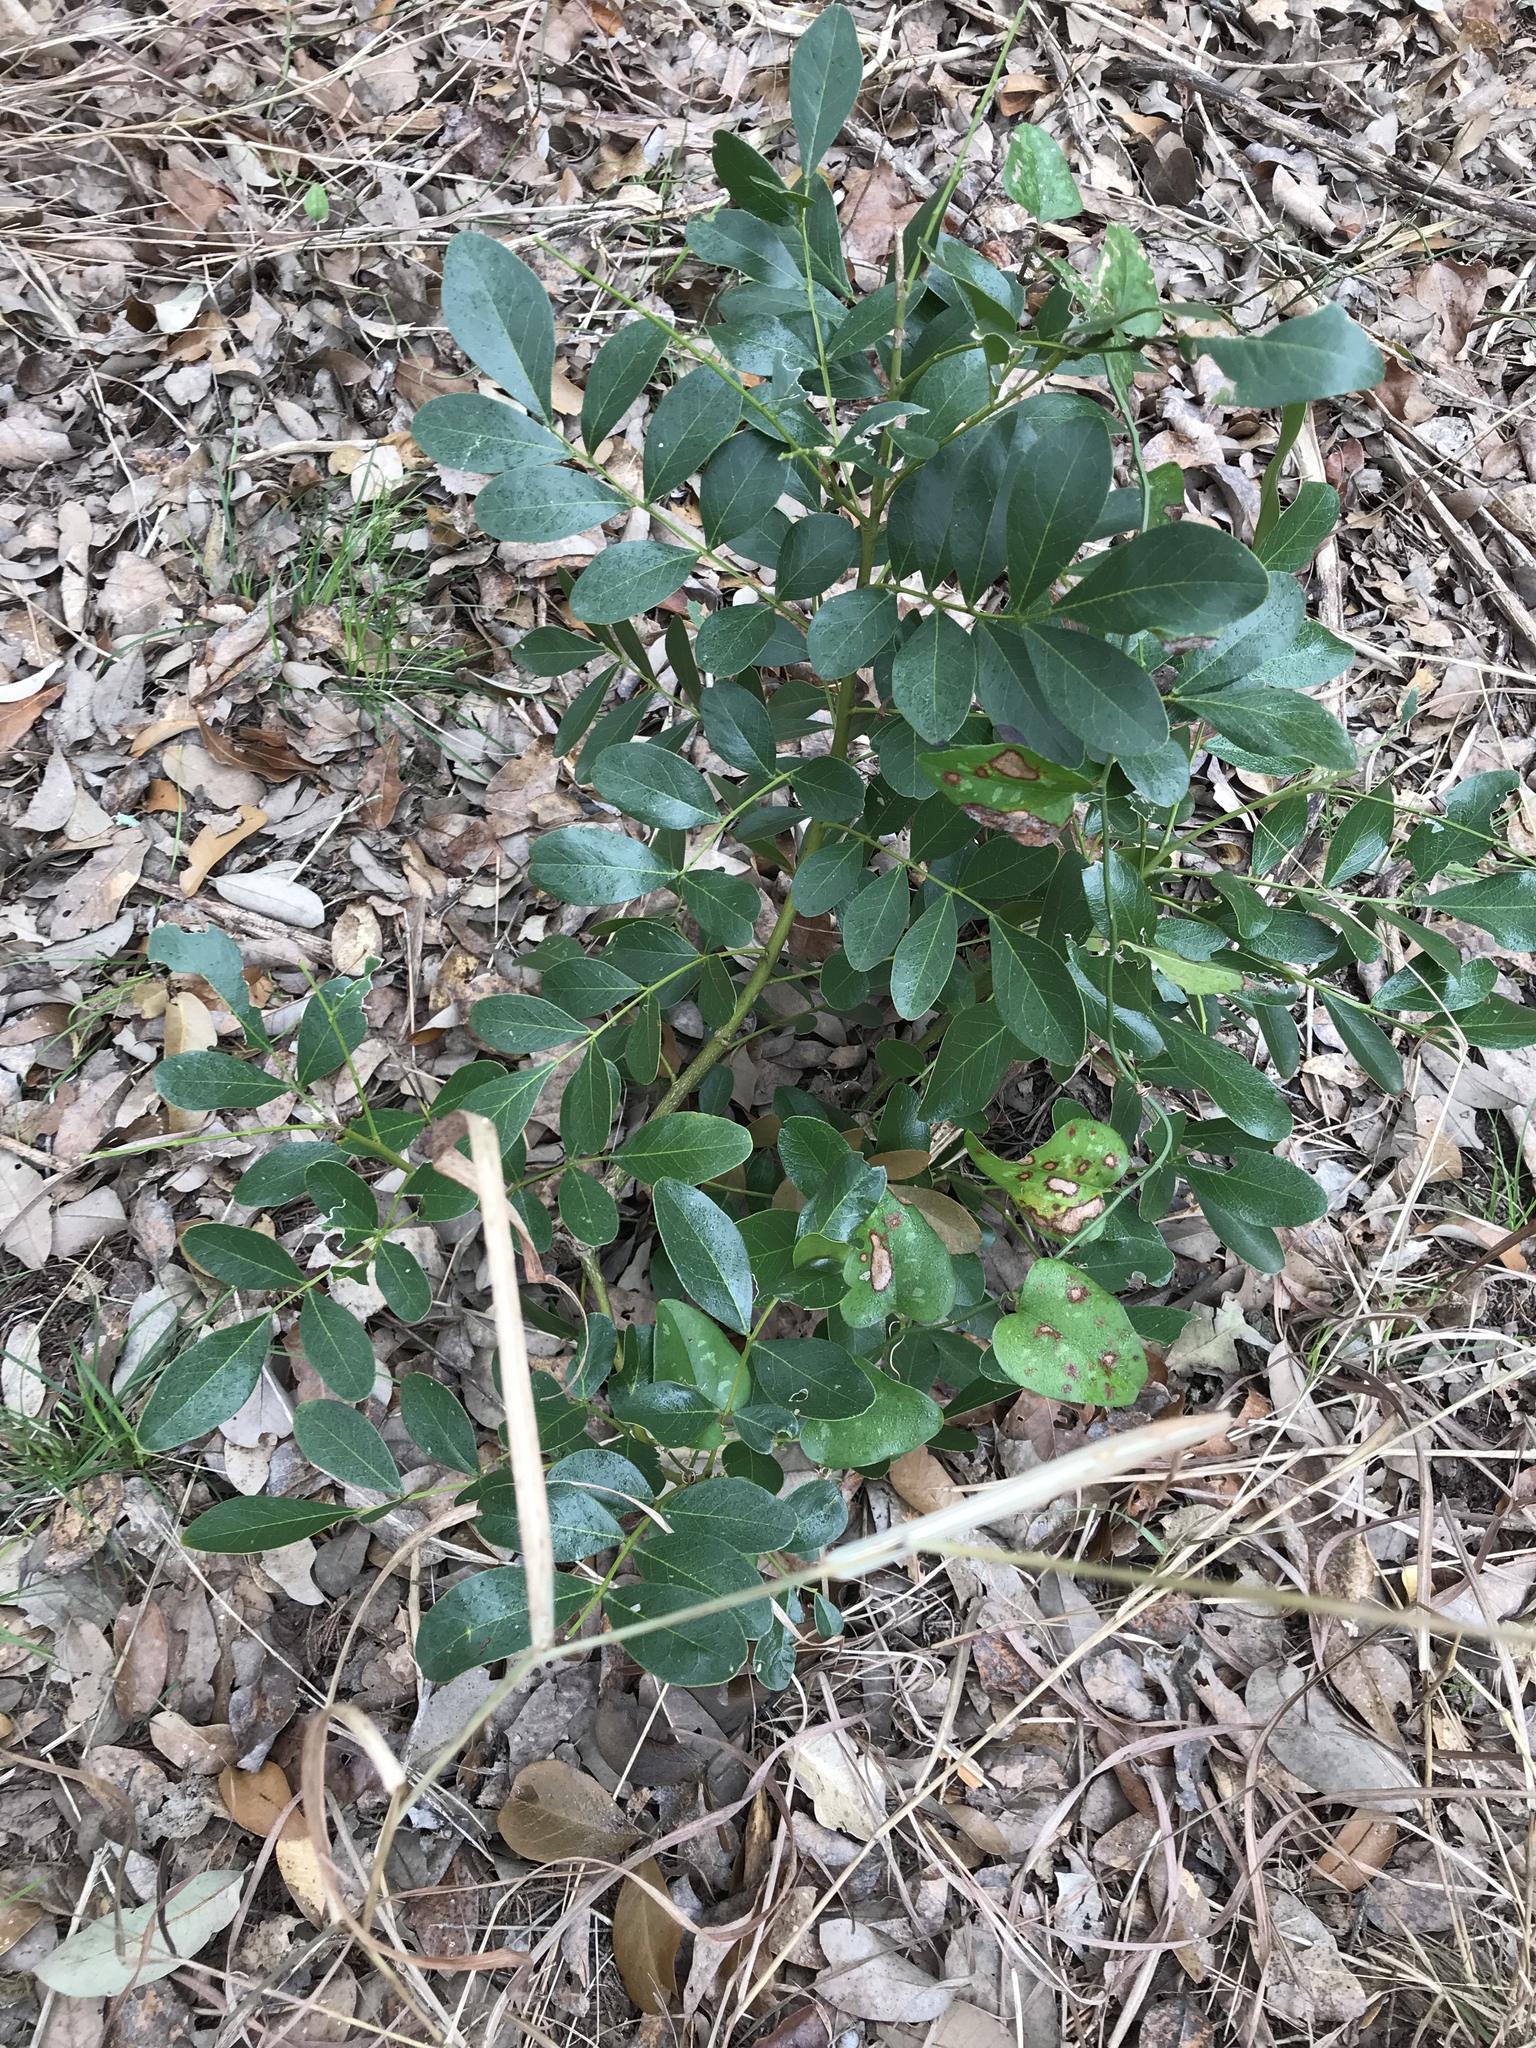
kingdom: Plantae
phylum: Tracheophyta
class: Magnoliopsida
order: Fabales
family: Fabaceae
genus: Dermatophyllum
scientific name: Dermatophyllum secundiflorum
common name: Texas-mountain-laurel
